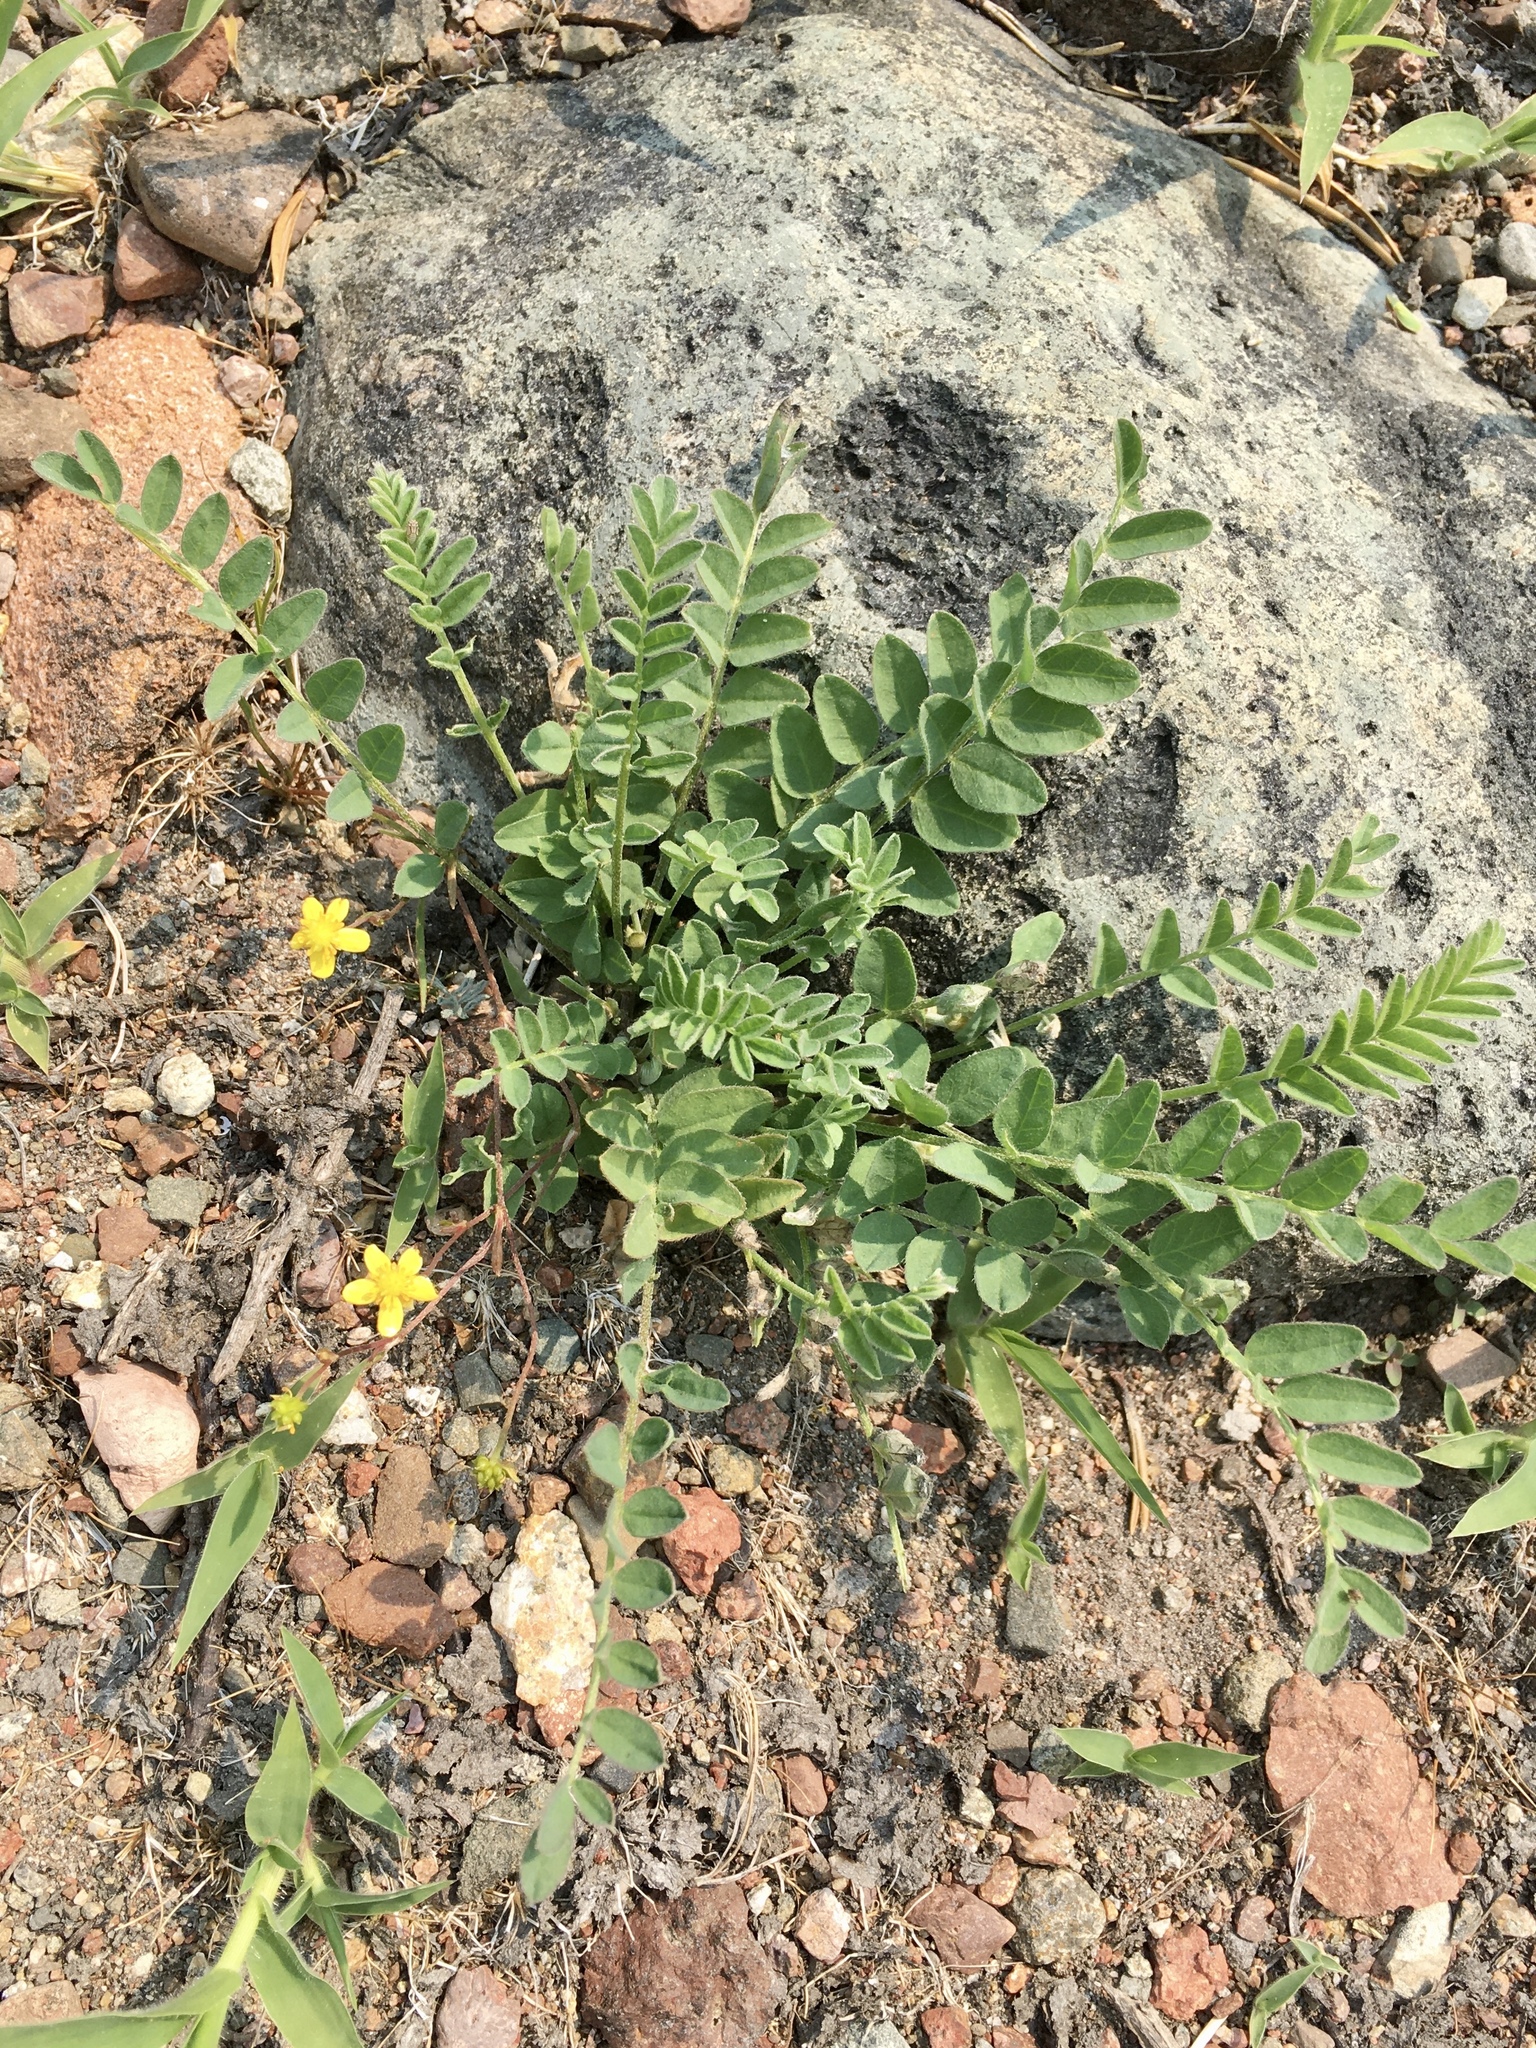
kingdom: Plantae
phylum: Tracheophyta
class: Magnoliopsida
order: Fabales
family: Fabaceae
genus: Astragalus
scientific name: Astragalus alpinus
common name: Alpine milk-vetch
